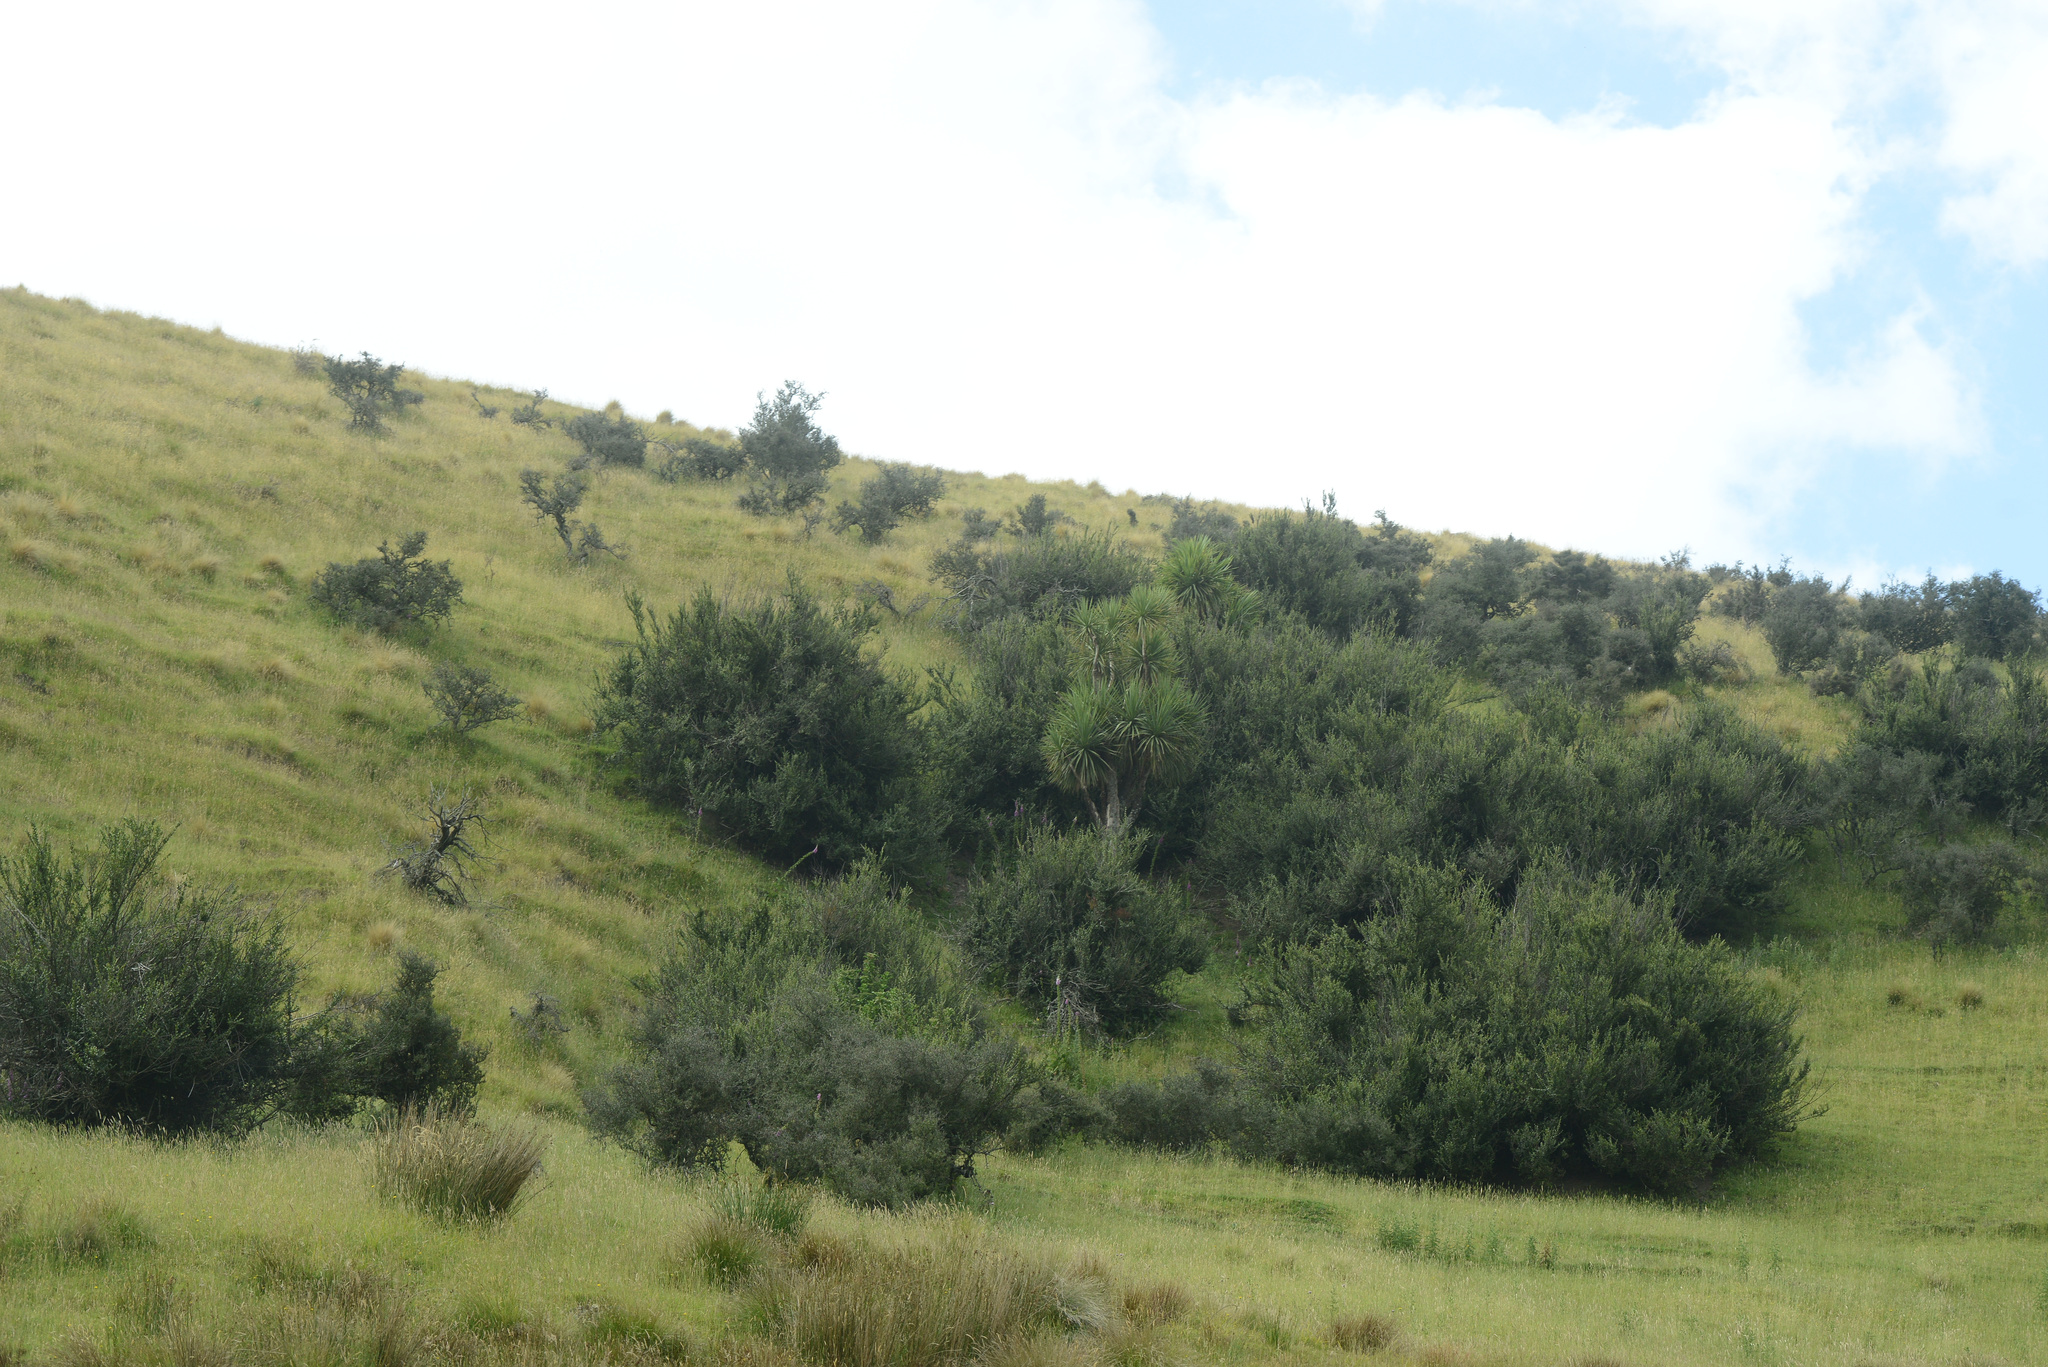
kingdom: Plantae
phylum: Tracheophyta
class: Liliopsida
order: Asparagales
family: Asparagaceae
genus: Cordyline
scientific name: Cordyline australis
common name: Cabbage-palm
